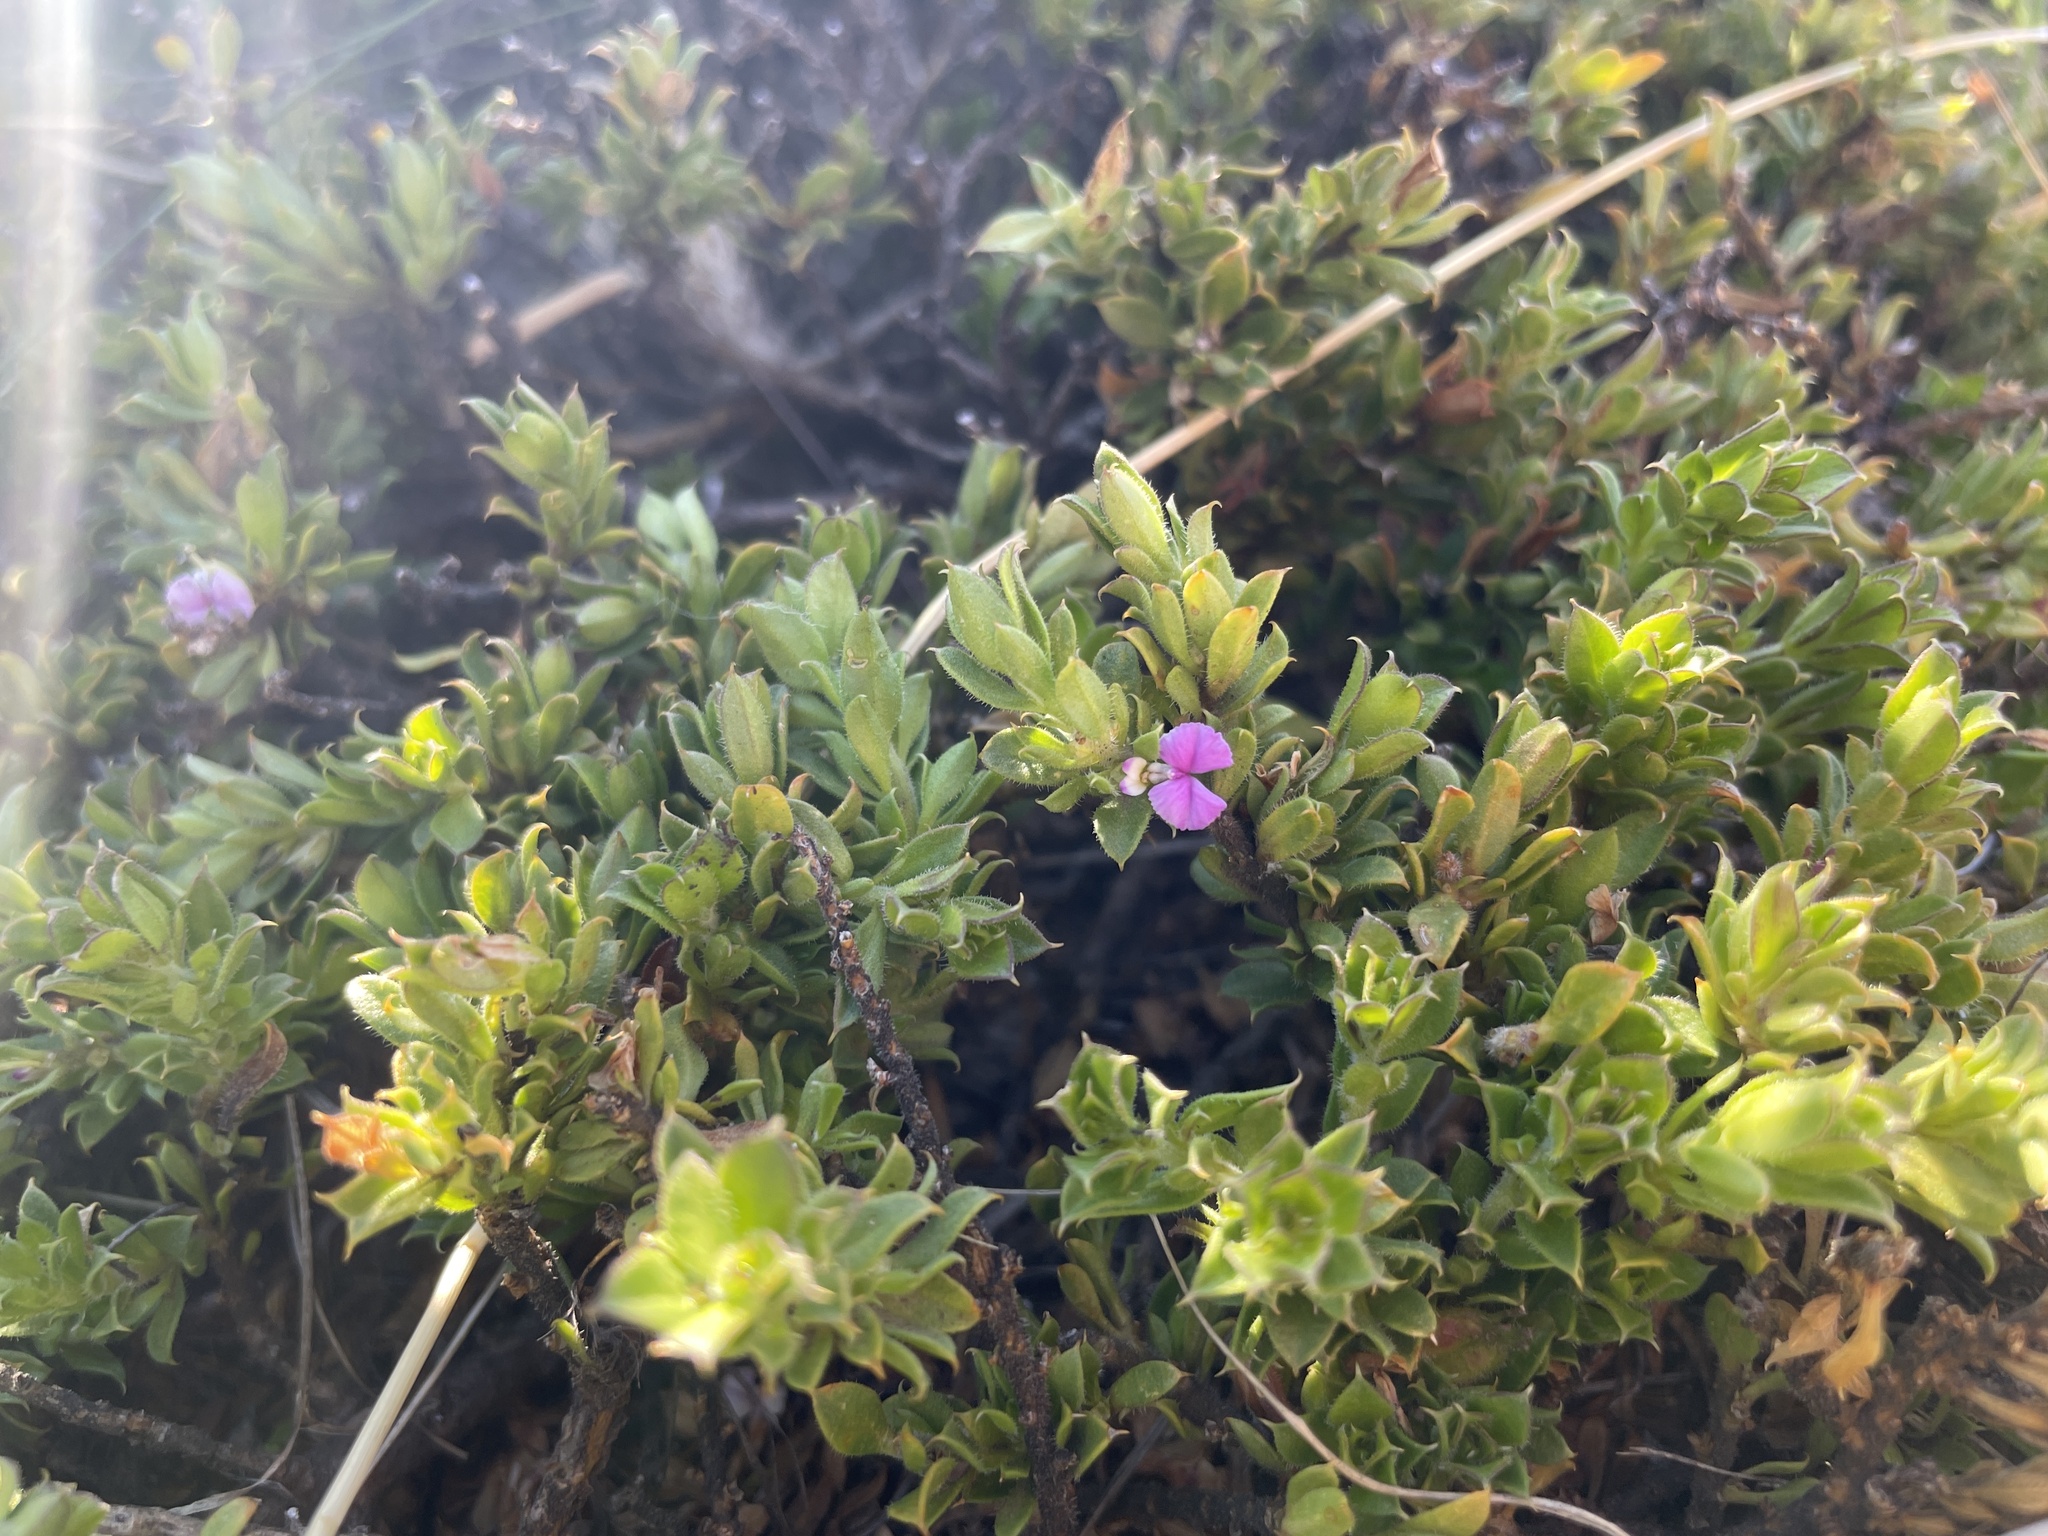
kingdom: Plantae
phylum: Tracheophyta
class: Magnoliopsida
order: Fabales
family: Polygalaceae
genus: Muraltia
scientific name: Muraltia saxicola
